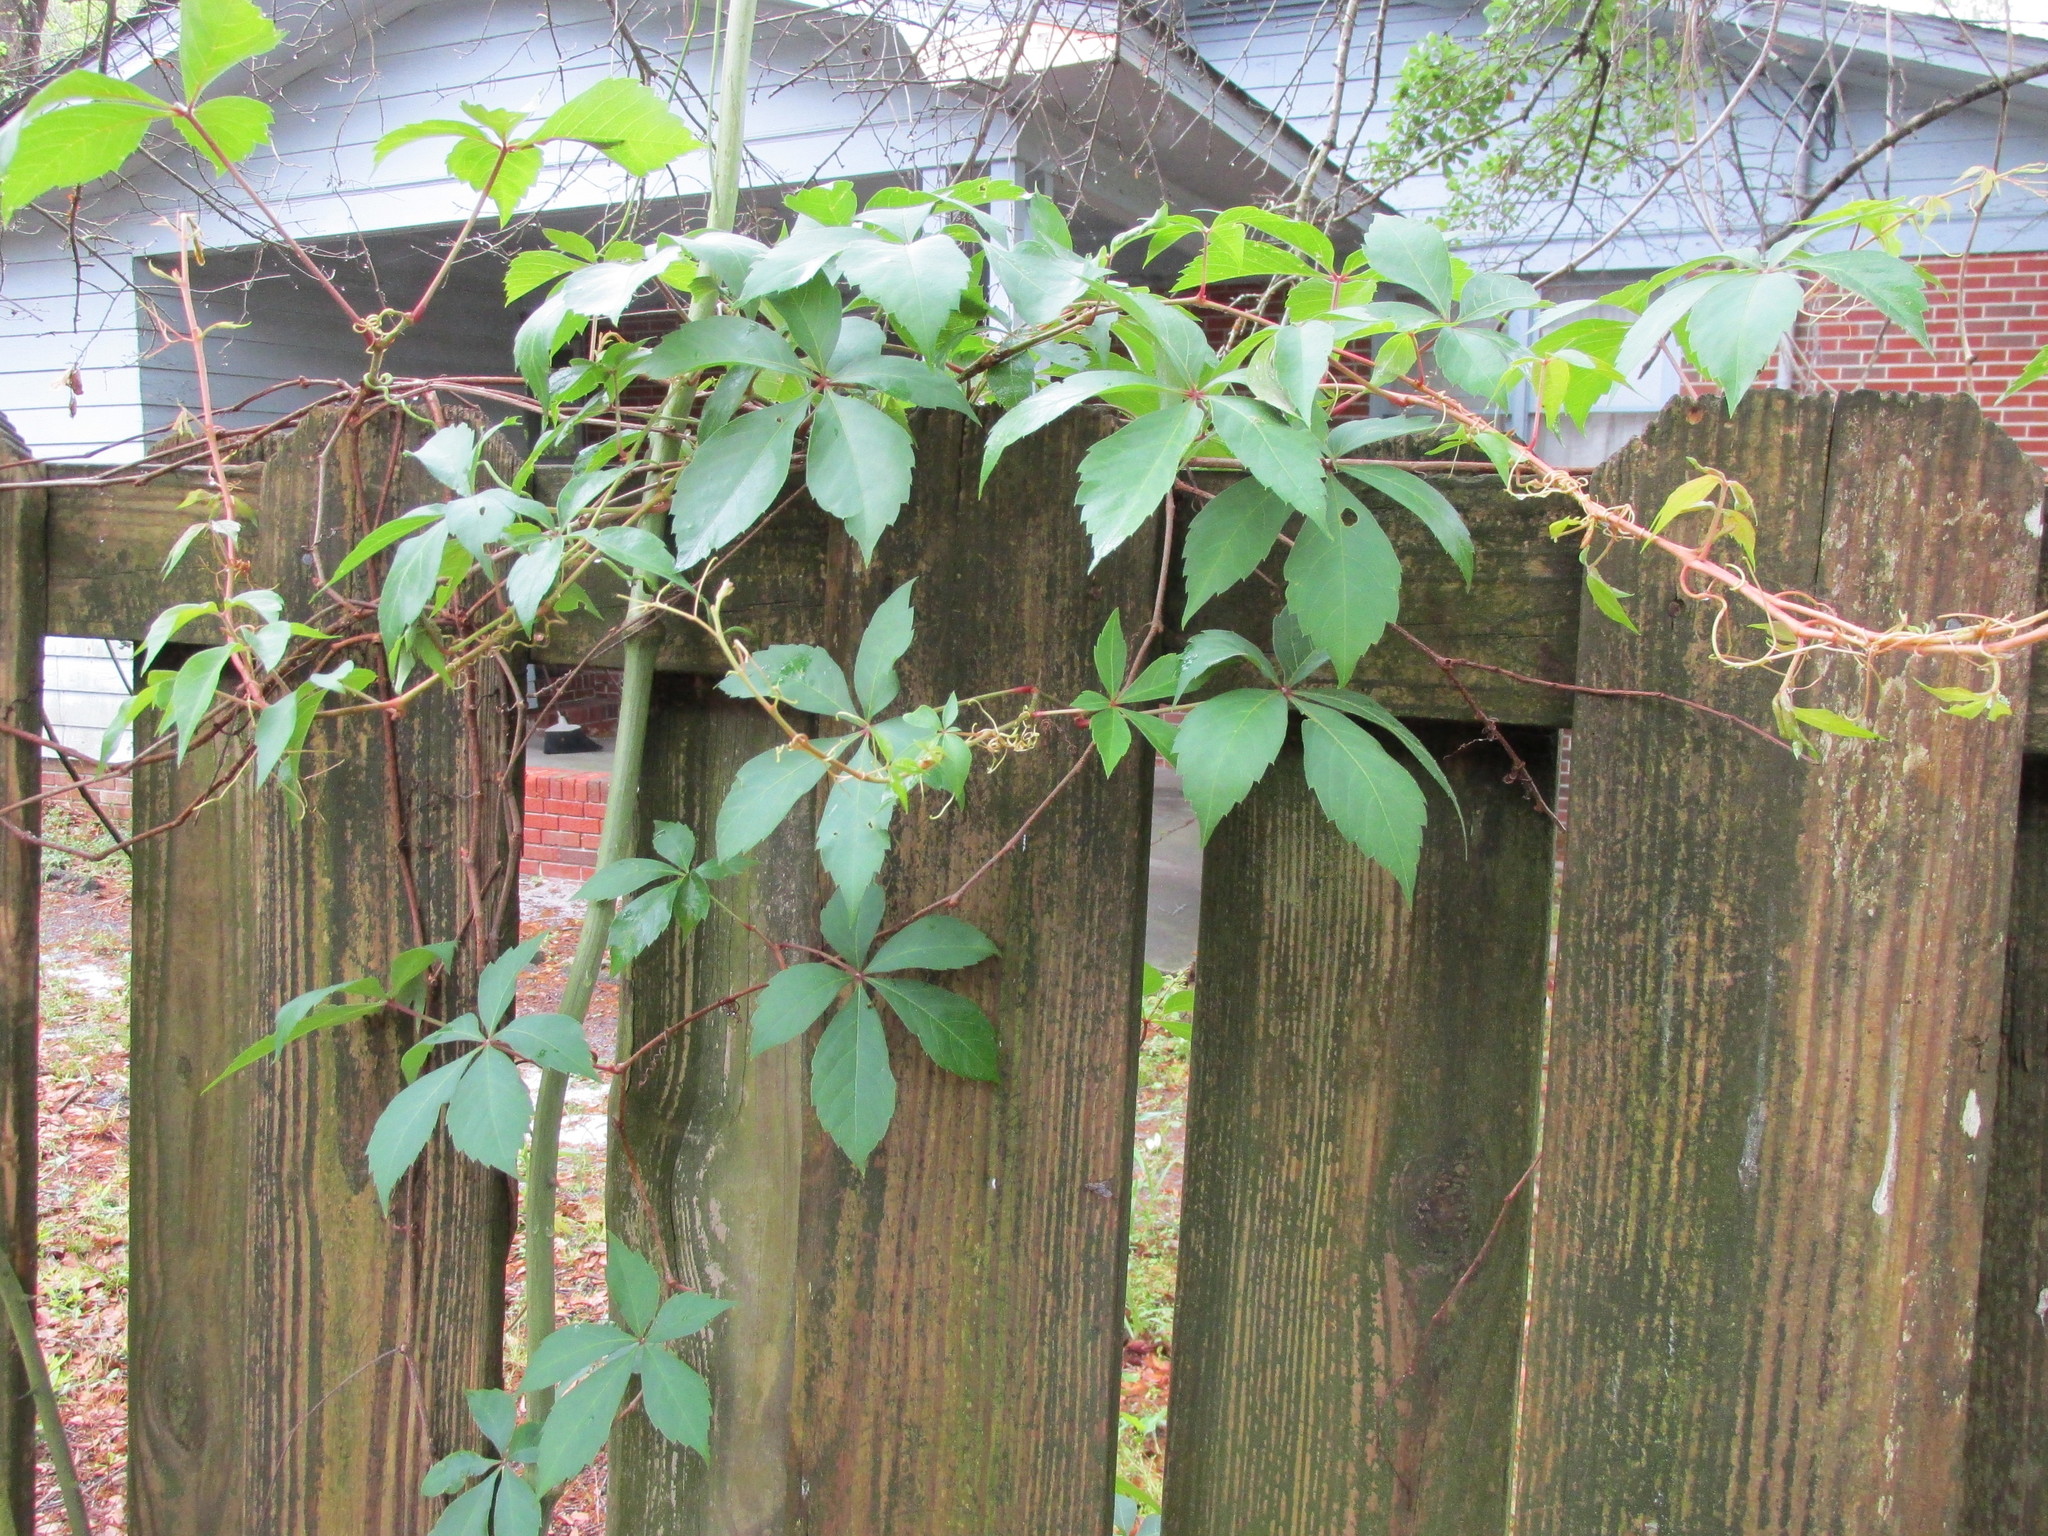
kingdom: Plantae
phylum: Tracheophyta
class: Magnoliopsida
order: Vitales
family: Vitaceae
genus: Parthenocissus
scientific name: Parthenocissus quinquefolia
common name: Virginia-creeper
